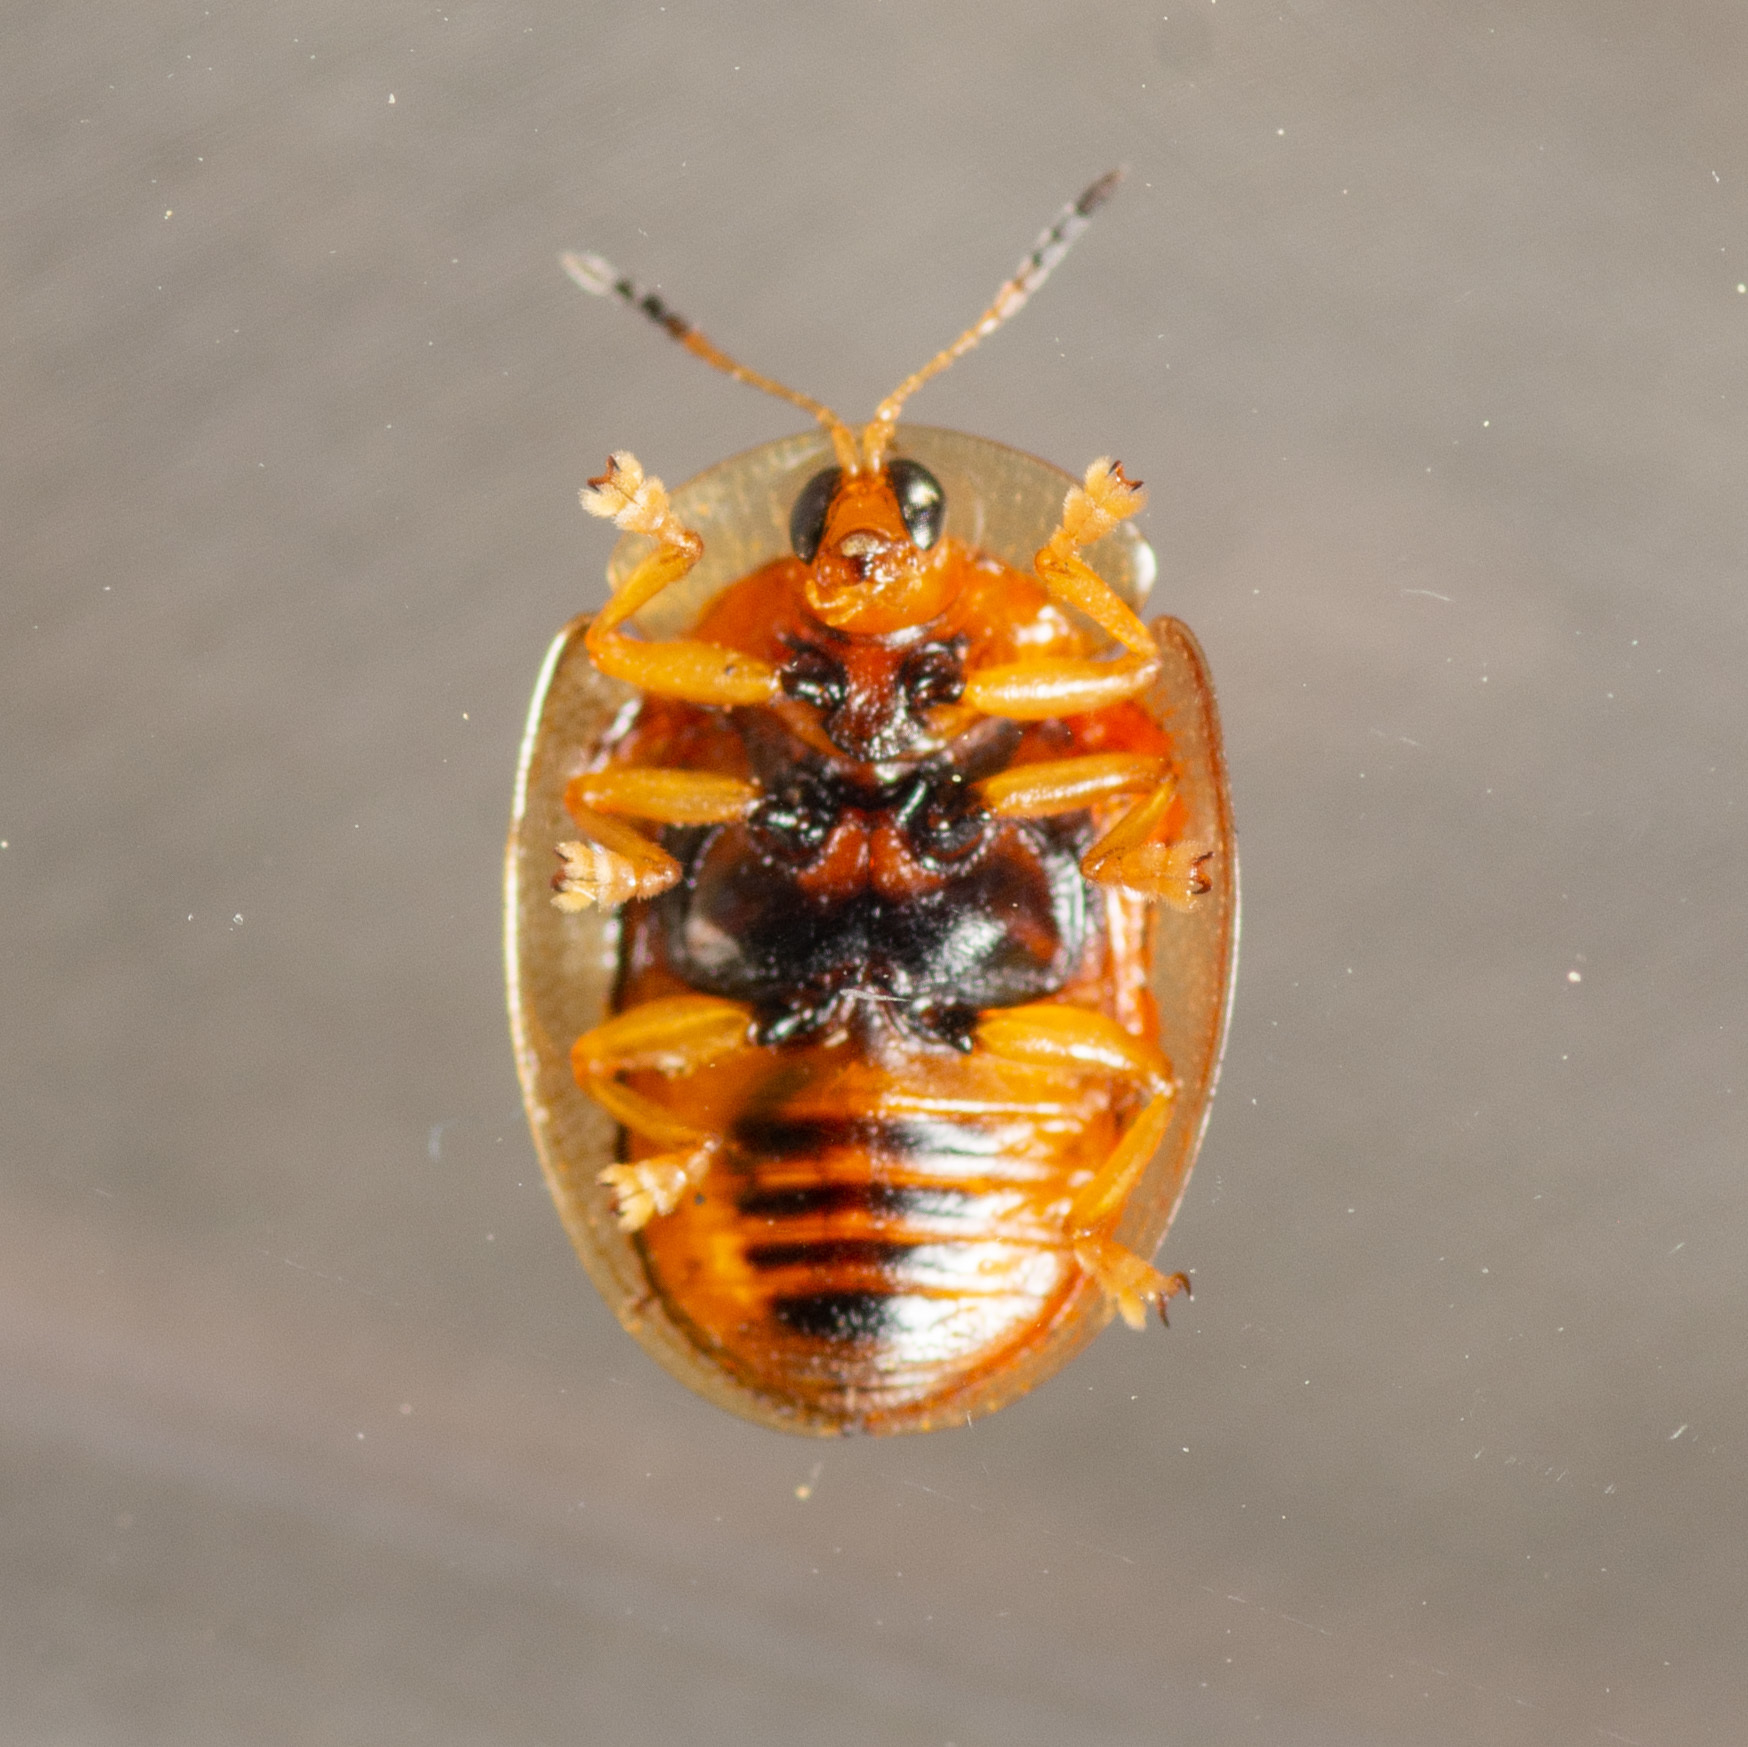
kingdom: Animalia
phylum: Arthropoda
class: Insecta
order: Coleoptera
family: Chrysomelidae
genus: Charidotella
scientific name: Charidotella sexpunctata
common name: Golden tortoise beetle
